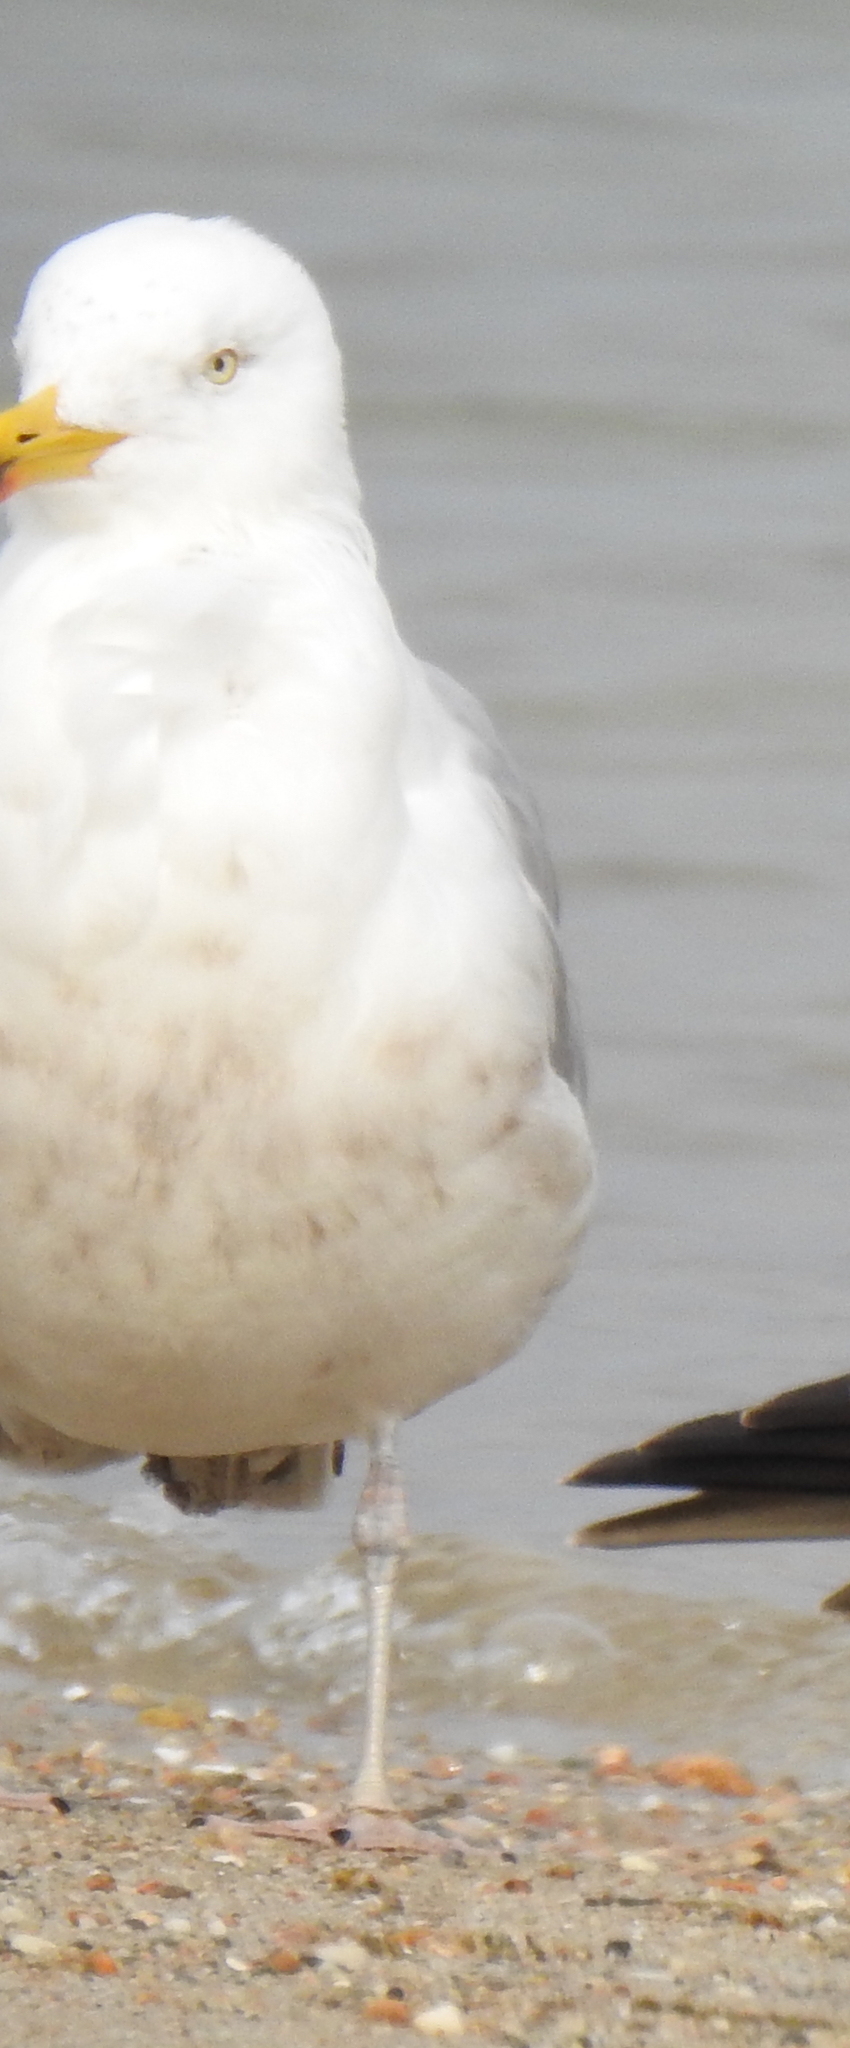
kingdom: Animalia
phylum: Chordata
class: Aves
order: Charadriiformes
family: Laridae
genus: Larus
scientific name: Larus argentatus
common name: Herring gull
